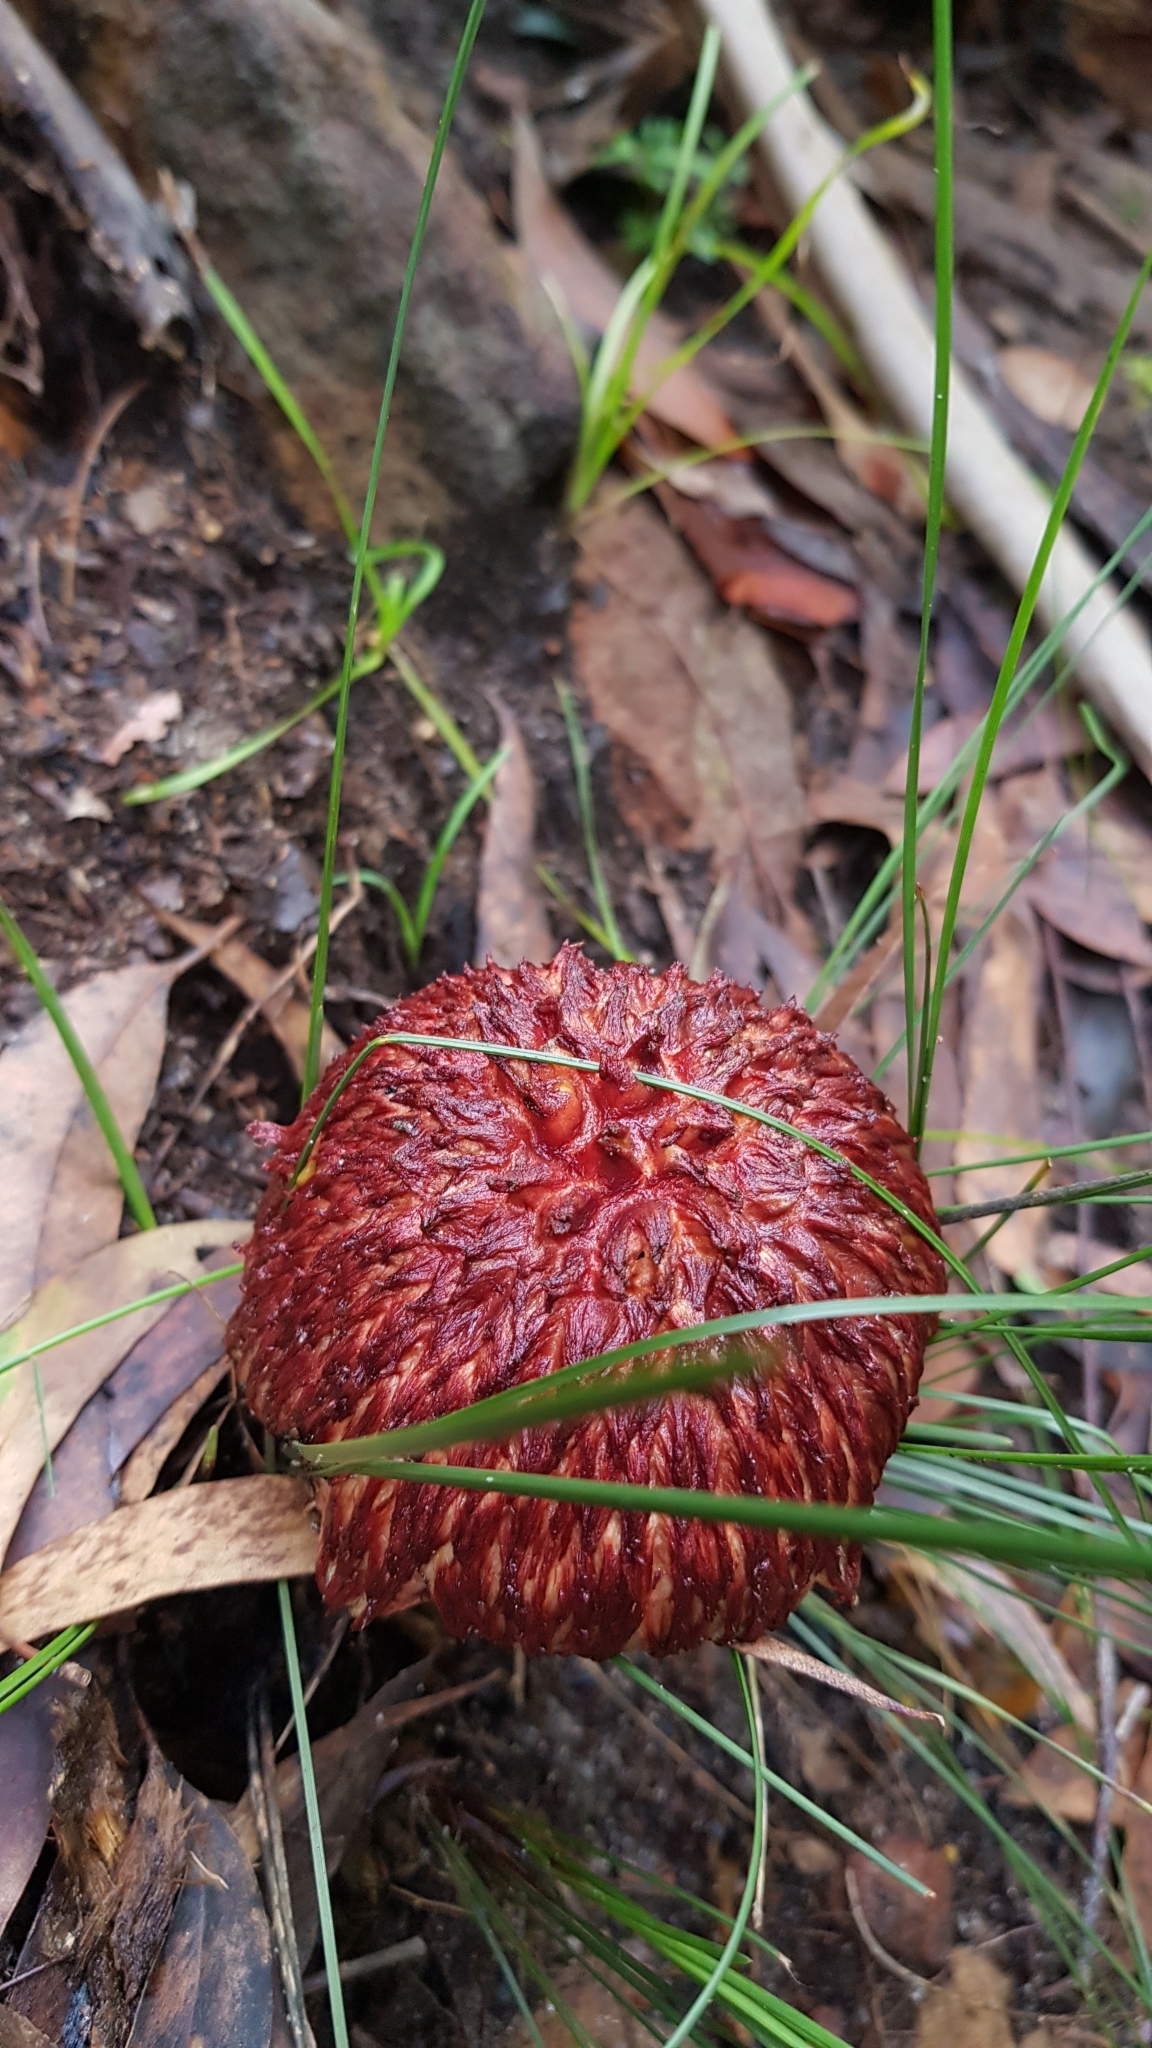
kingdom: Fungi
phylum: Basidiomycota
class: Agaricomycetes
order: Boletales
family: Boletaceae
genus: Boletellus
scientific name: Boletellus emodensis
